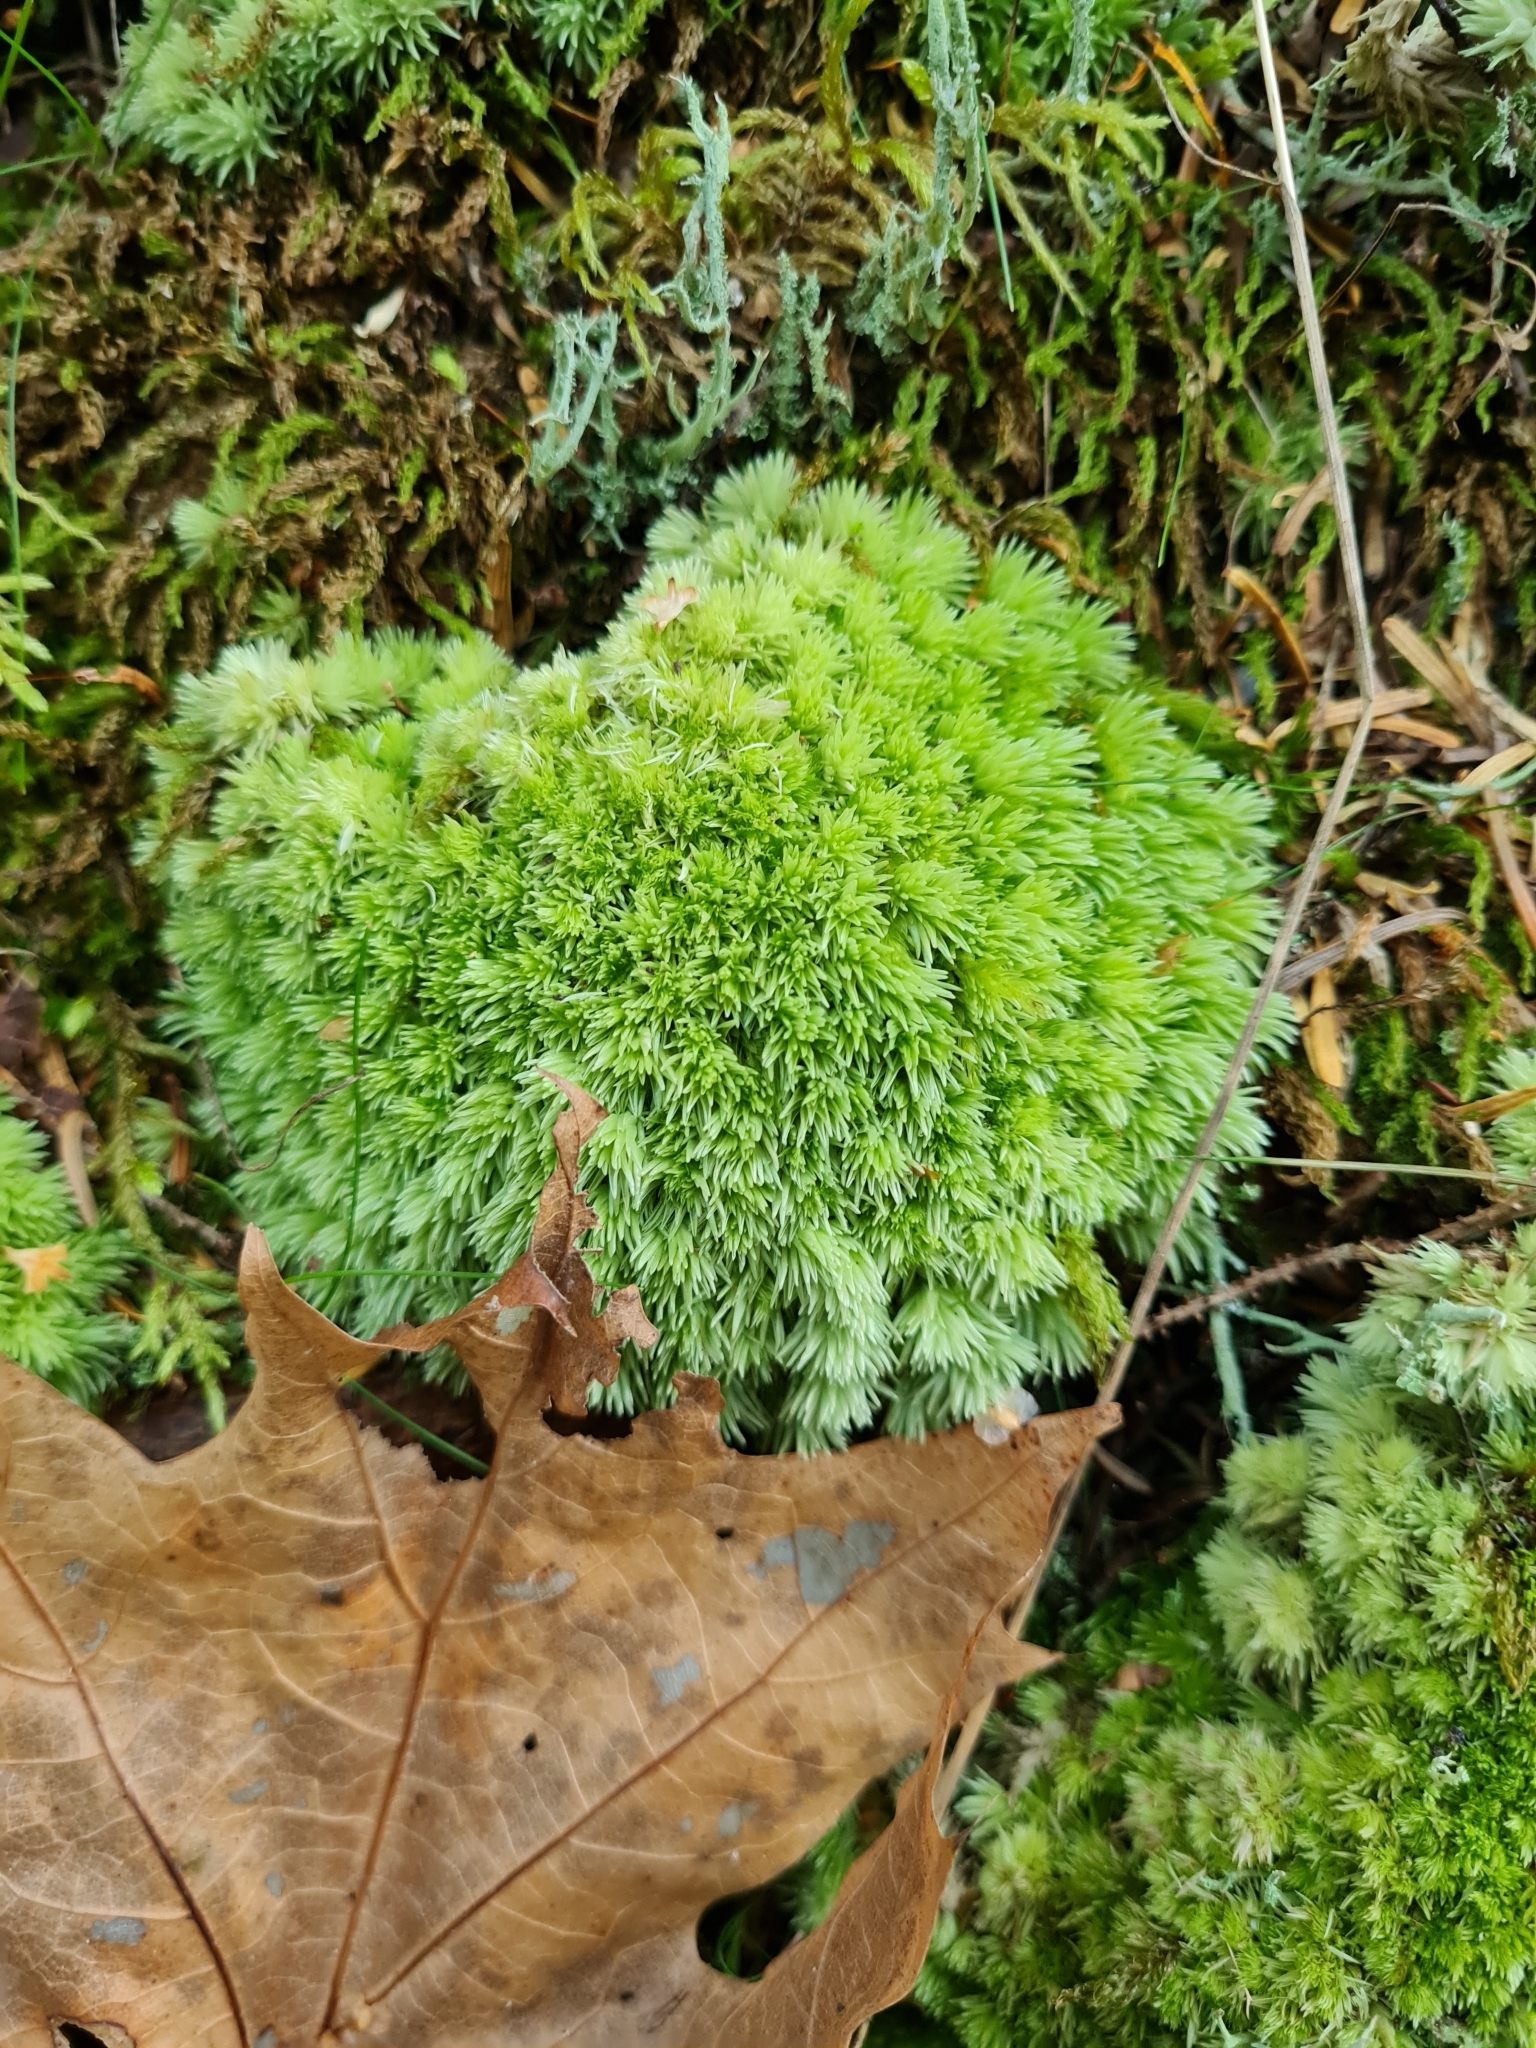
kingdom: Plantae
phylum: Bryophyta
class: Bryopsida
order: Dicranales
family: Leucobryaceae
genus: Leucobryum
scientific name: Leucobryum glaucum
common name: Large white-moss
